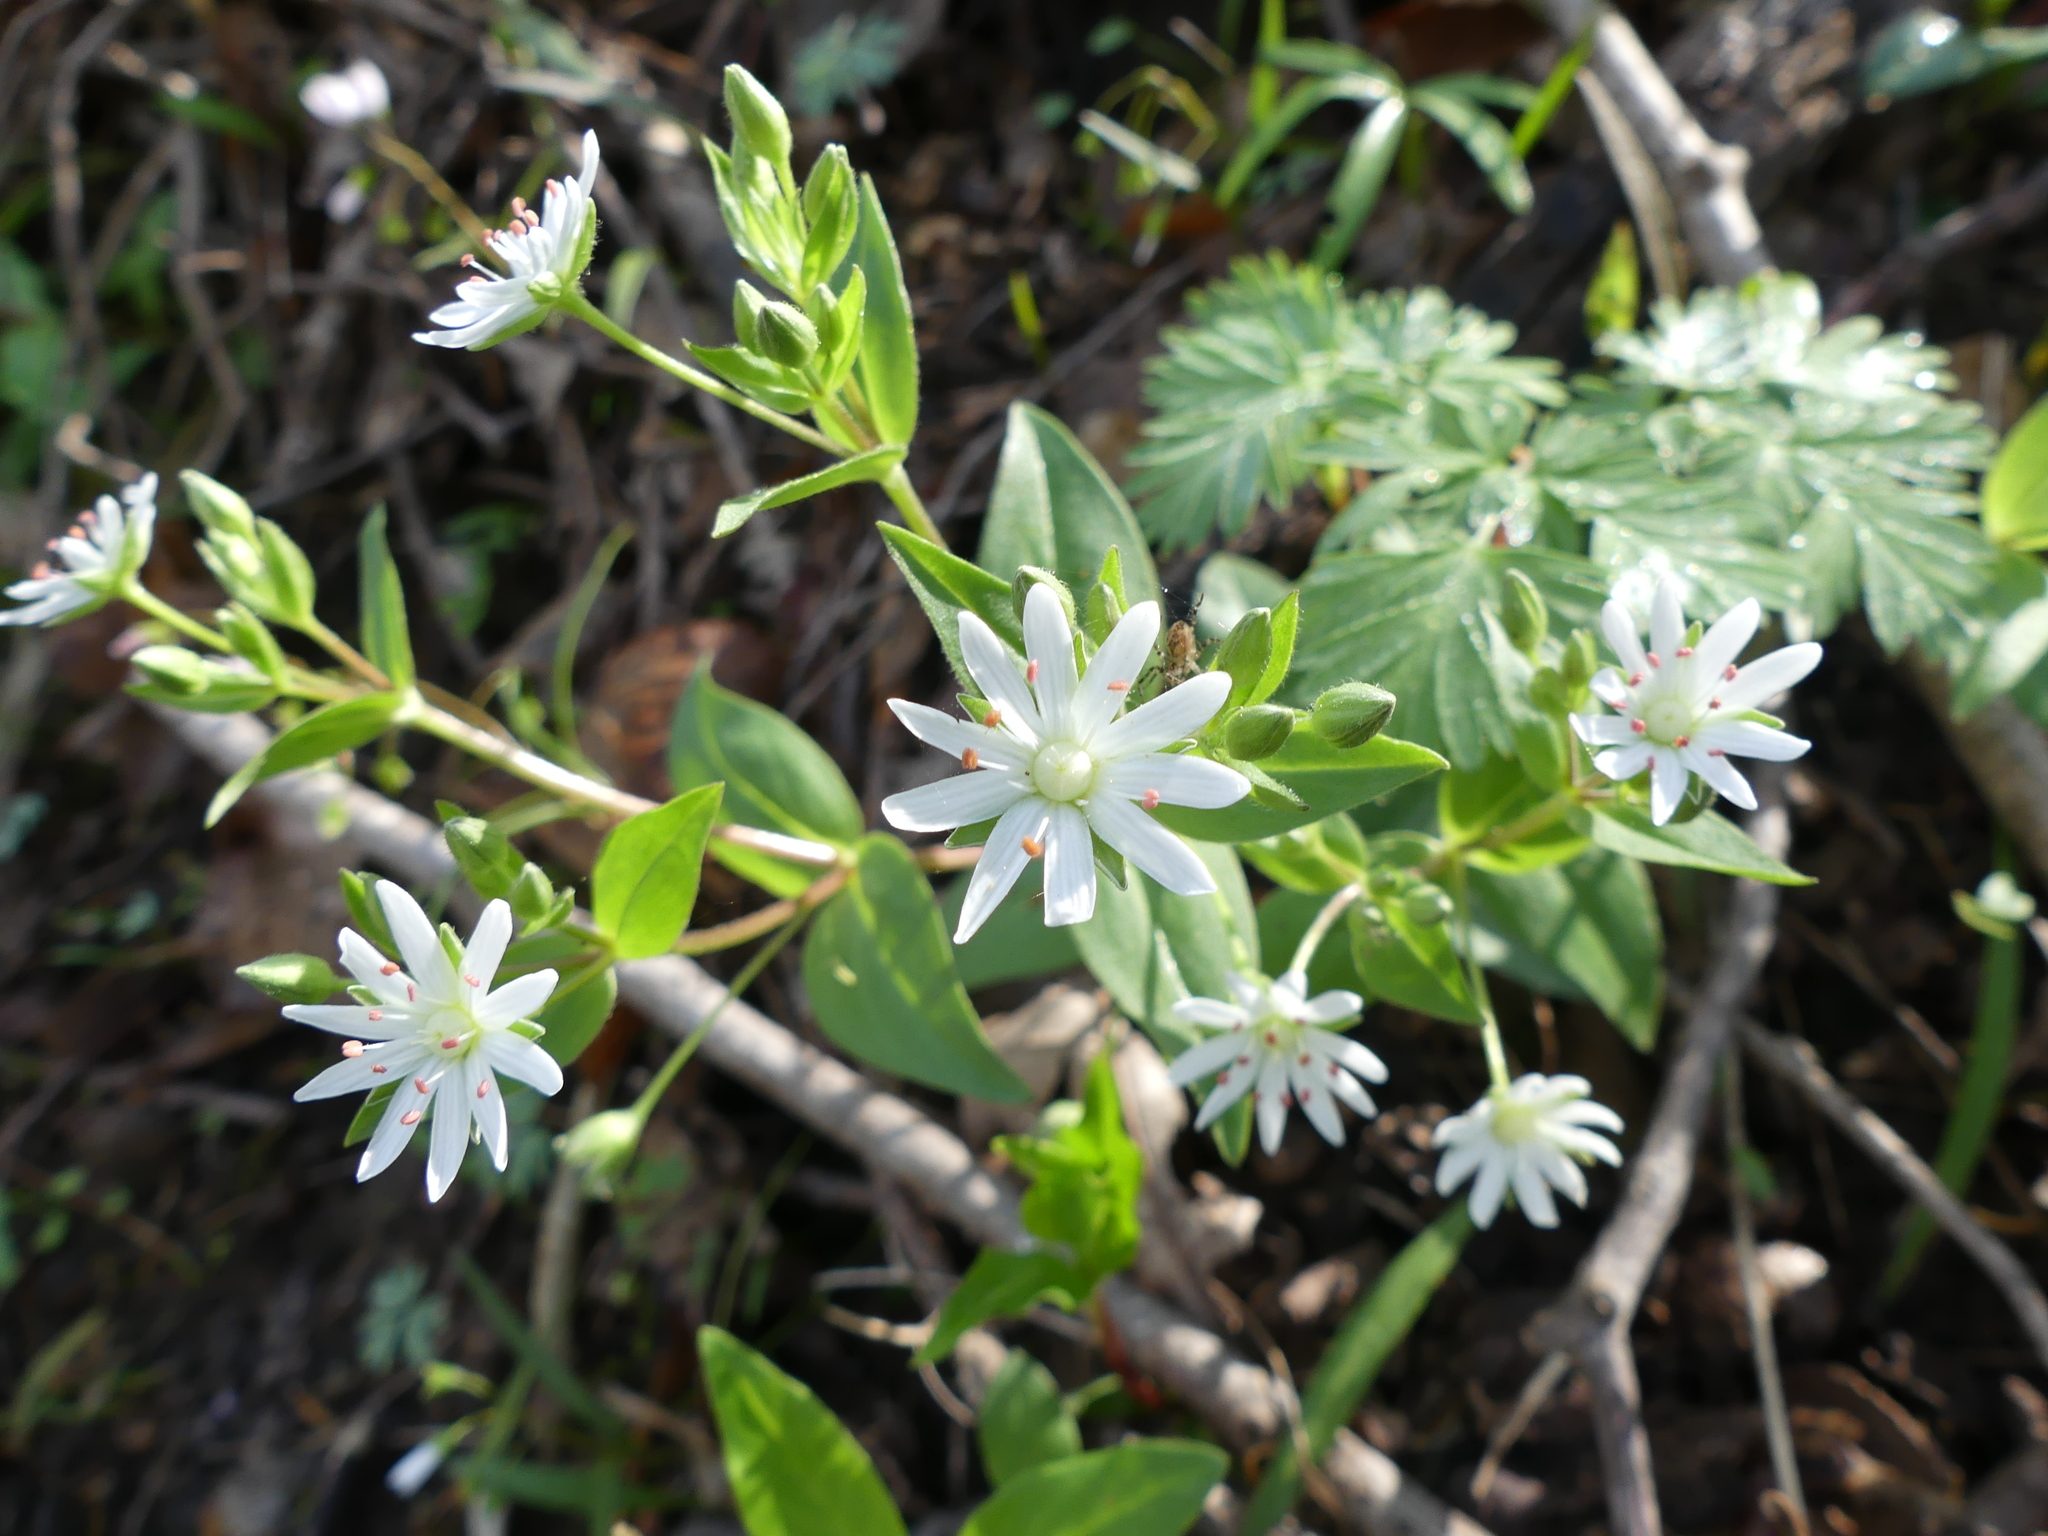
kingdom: Plantae
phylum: Tracheophyta
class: Magnoliopsida
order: Caryophyllales
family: Caryophyllaceae
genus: Stellaria
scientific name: Stellaria pubera
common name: Star chickweed
